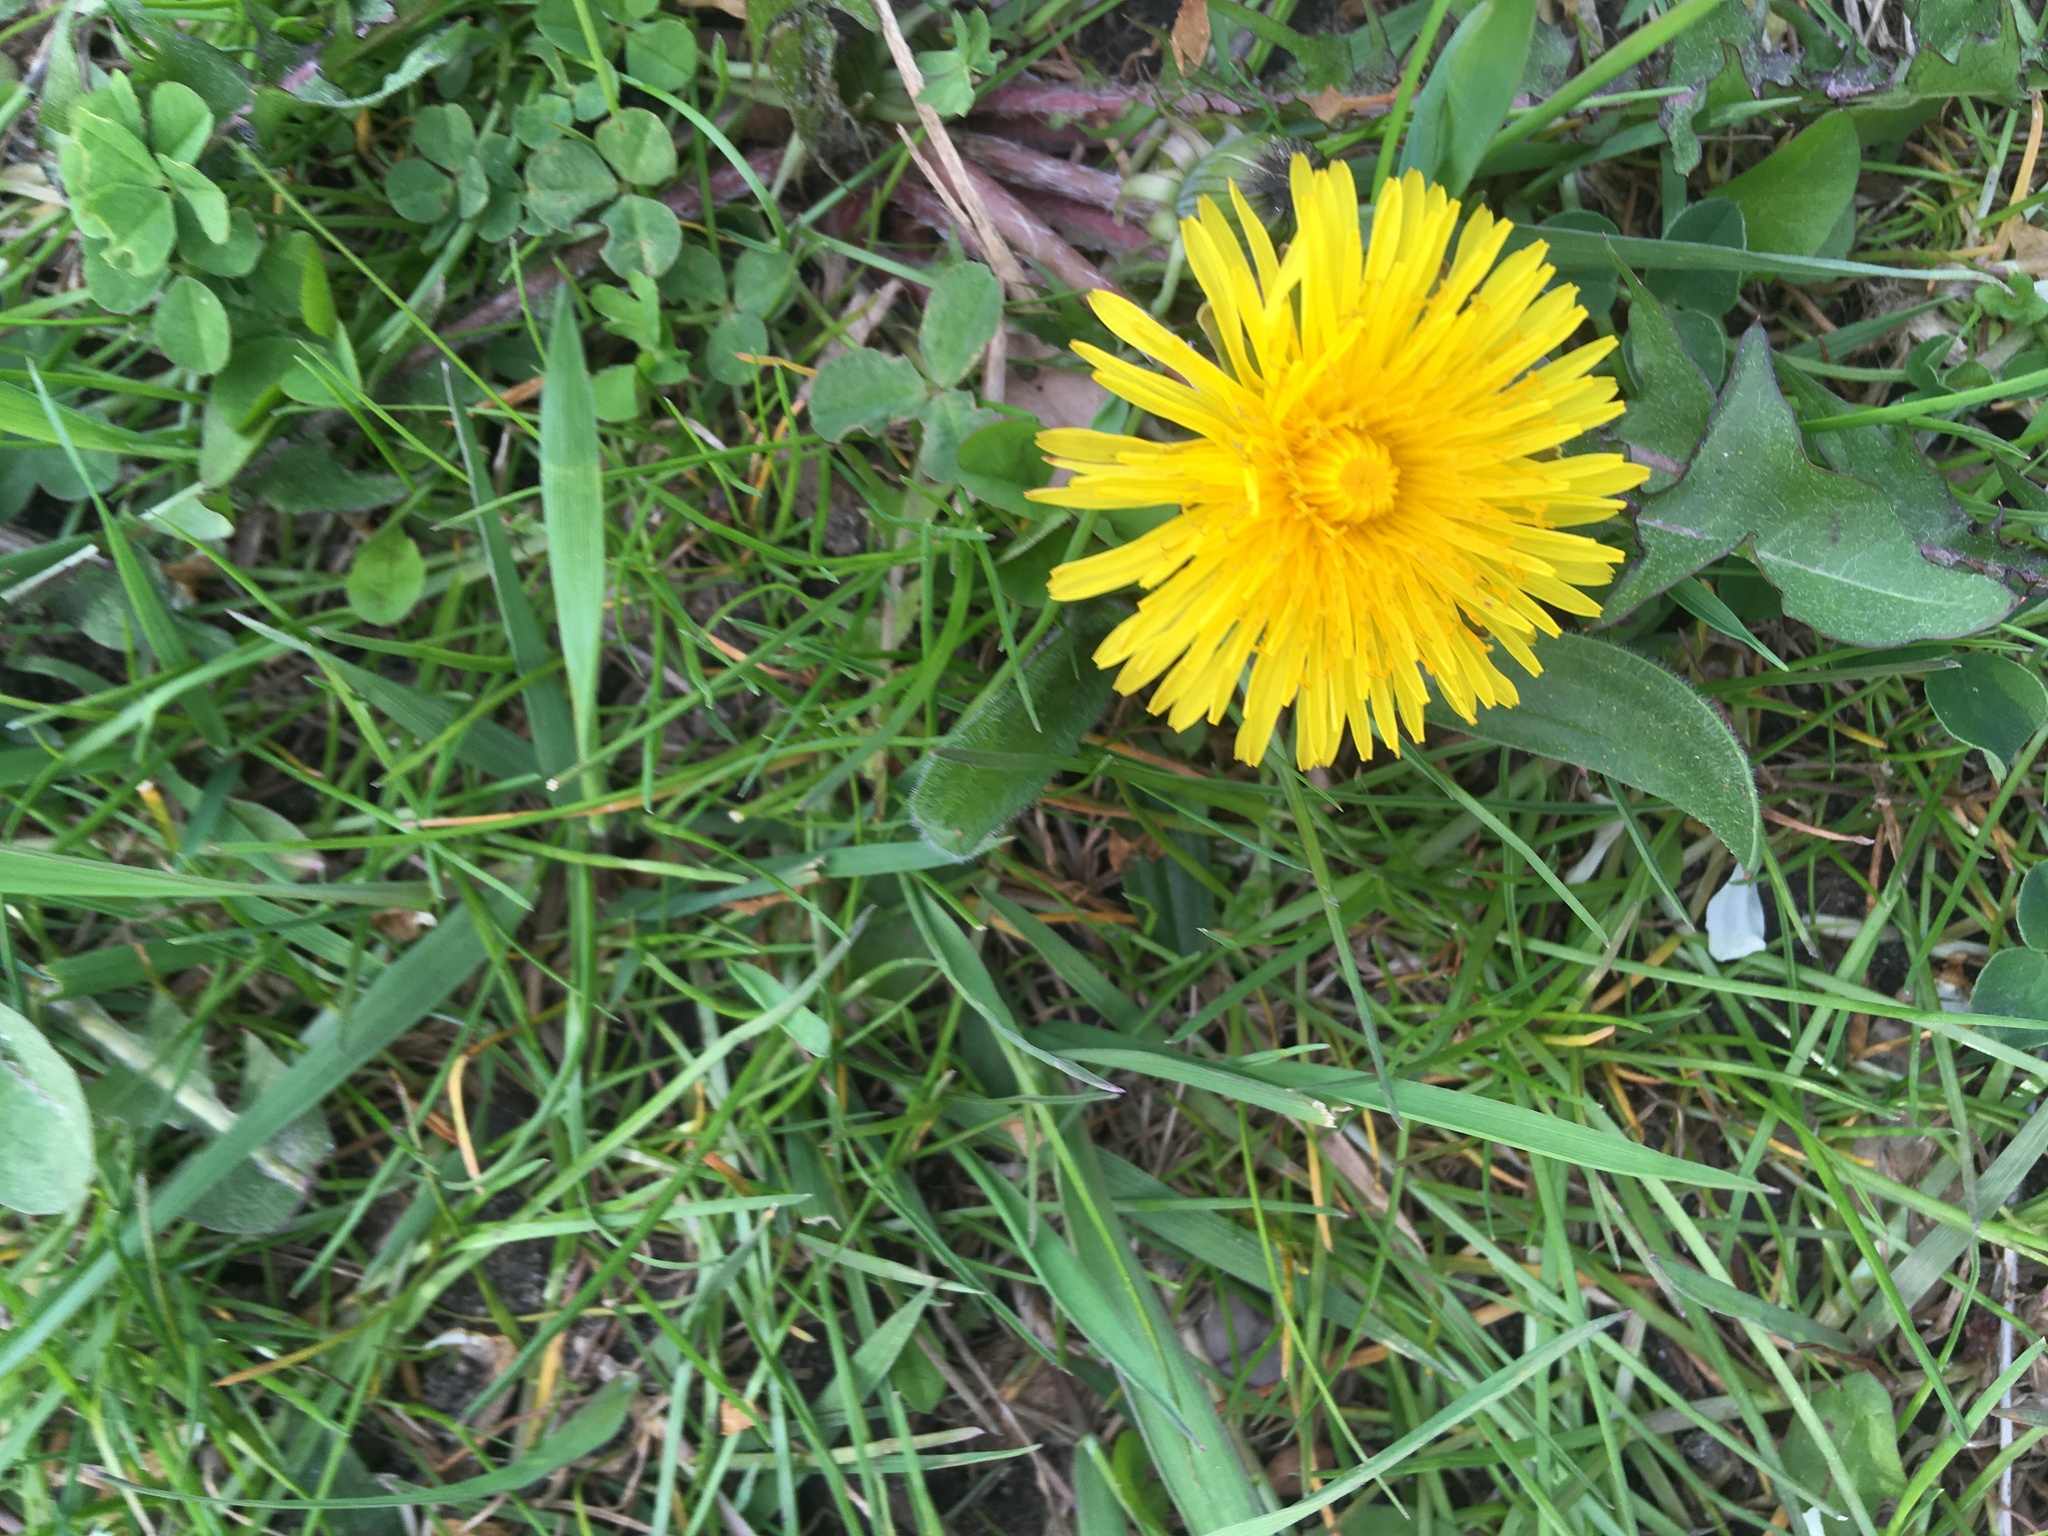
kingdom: Plantae
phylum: Tracheophyta
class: Magnoliopsida
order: Asterales
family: Asteraceae
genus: Taraxacum
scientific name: Taraxacum officinale
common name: Common dandelion
